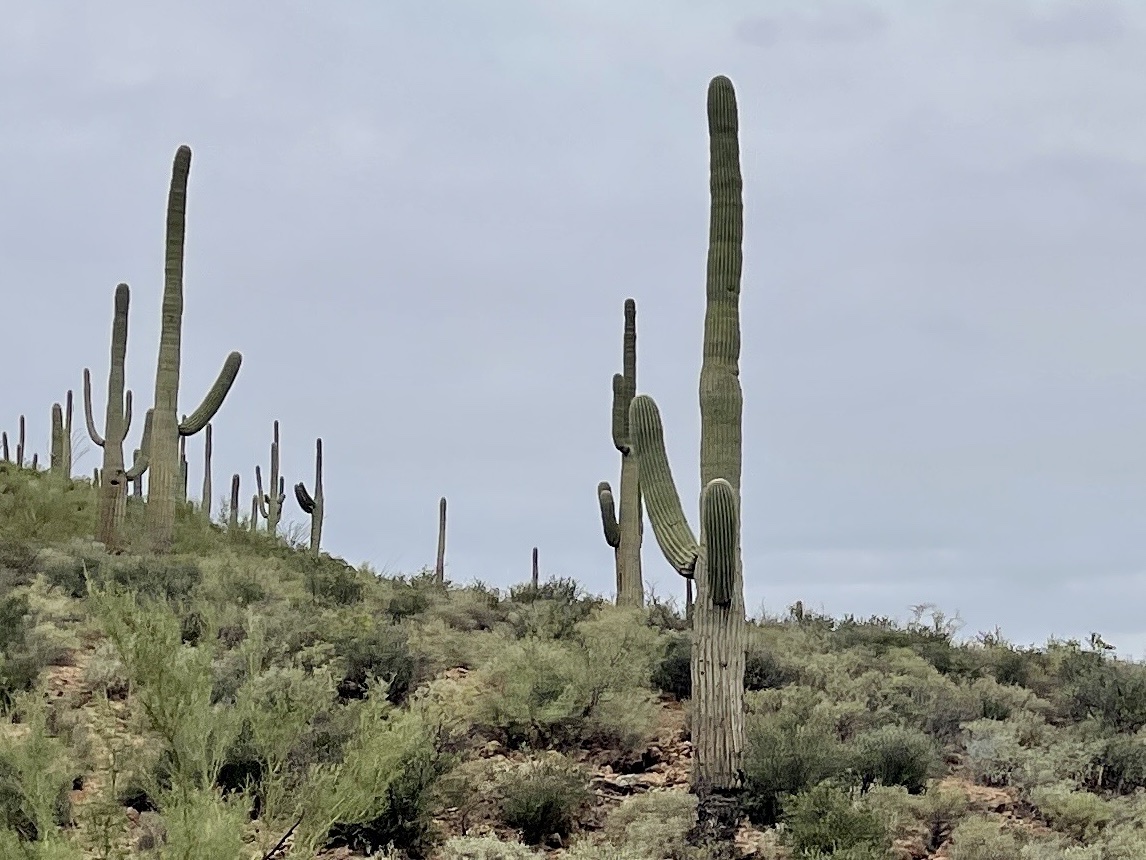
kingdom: Plantae
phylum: Tracheophyta
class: Magnoliopsida
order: Caryophyllales
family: Cactaceae
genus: Carnegiea
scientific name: Carnegiea gigantea
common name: Saguaro
